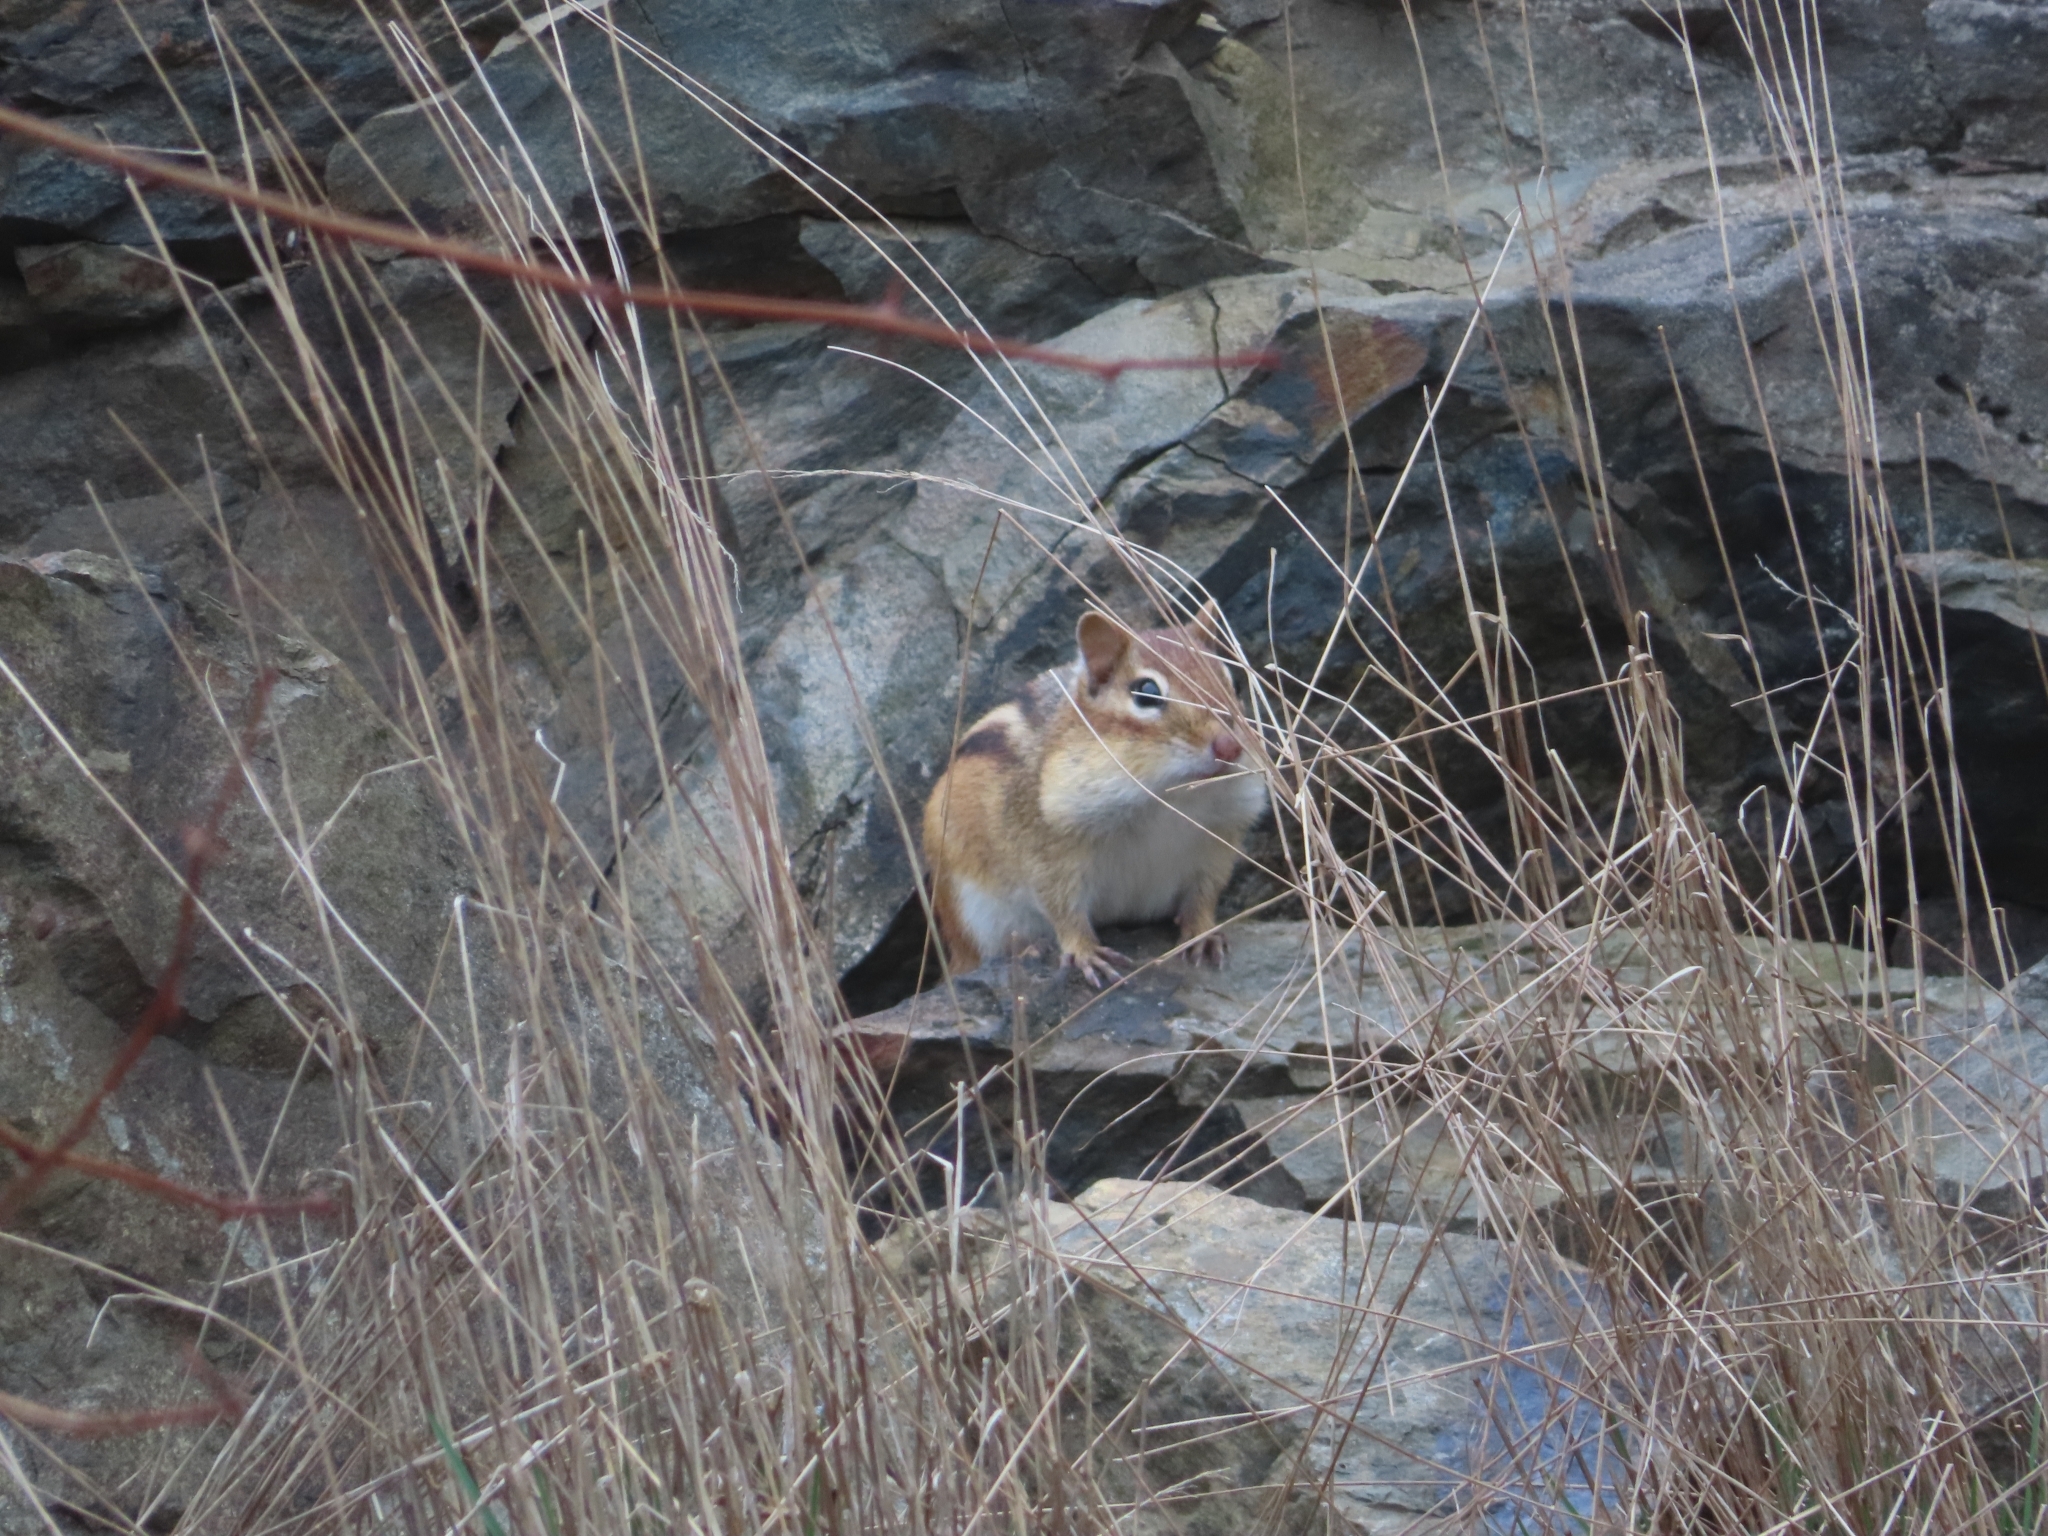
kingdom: Animalia
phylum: Chordata
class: Mammalia
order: Rodentia
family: Sciuridae
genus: Tamias
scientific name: Tamias striatus
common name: Eastern chipmunk
